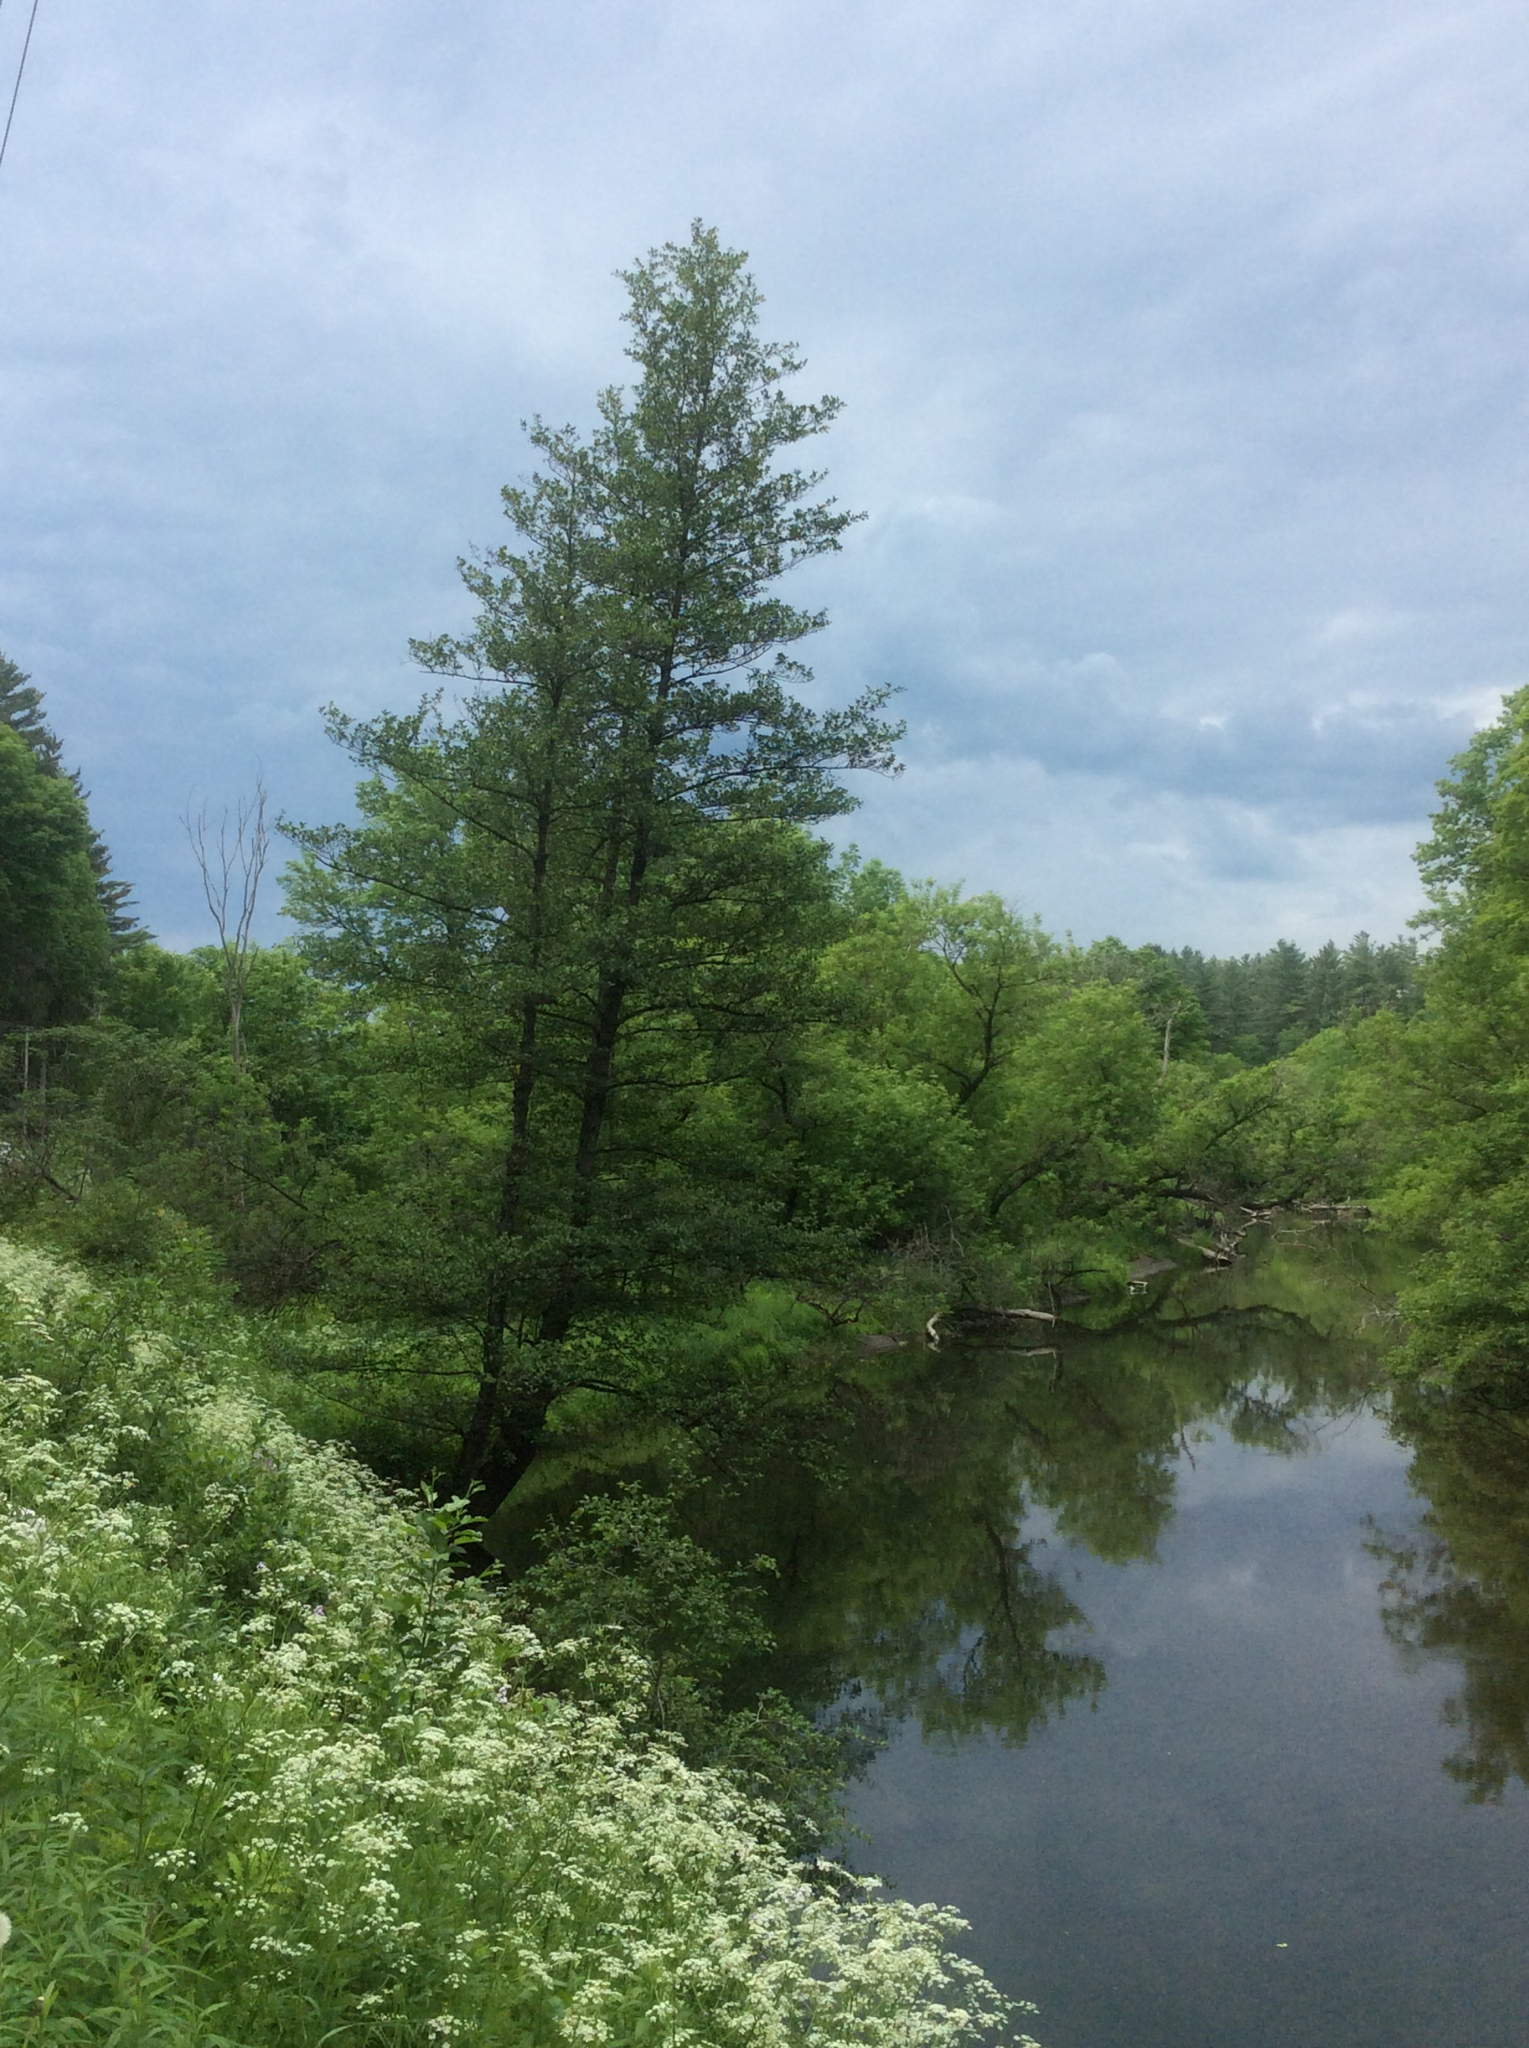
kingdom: Plantae
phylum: Tracheophyta
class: Magnoliopsida
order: Fagales
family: Betulaceae
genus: Alnus
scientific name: Alnus glutinosa
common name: Black alder
